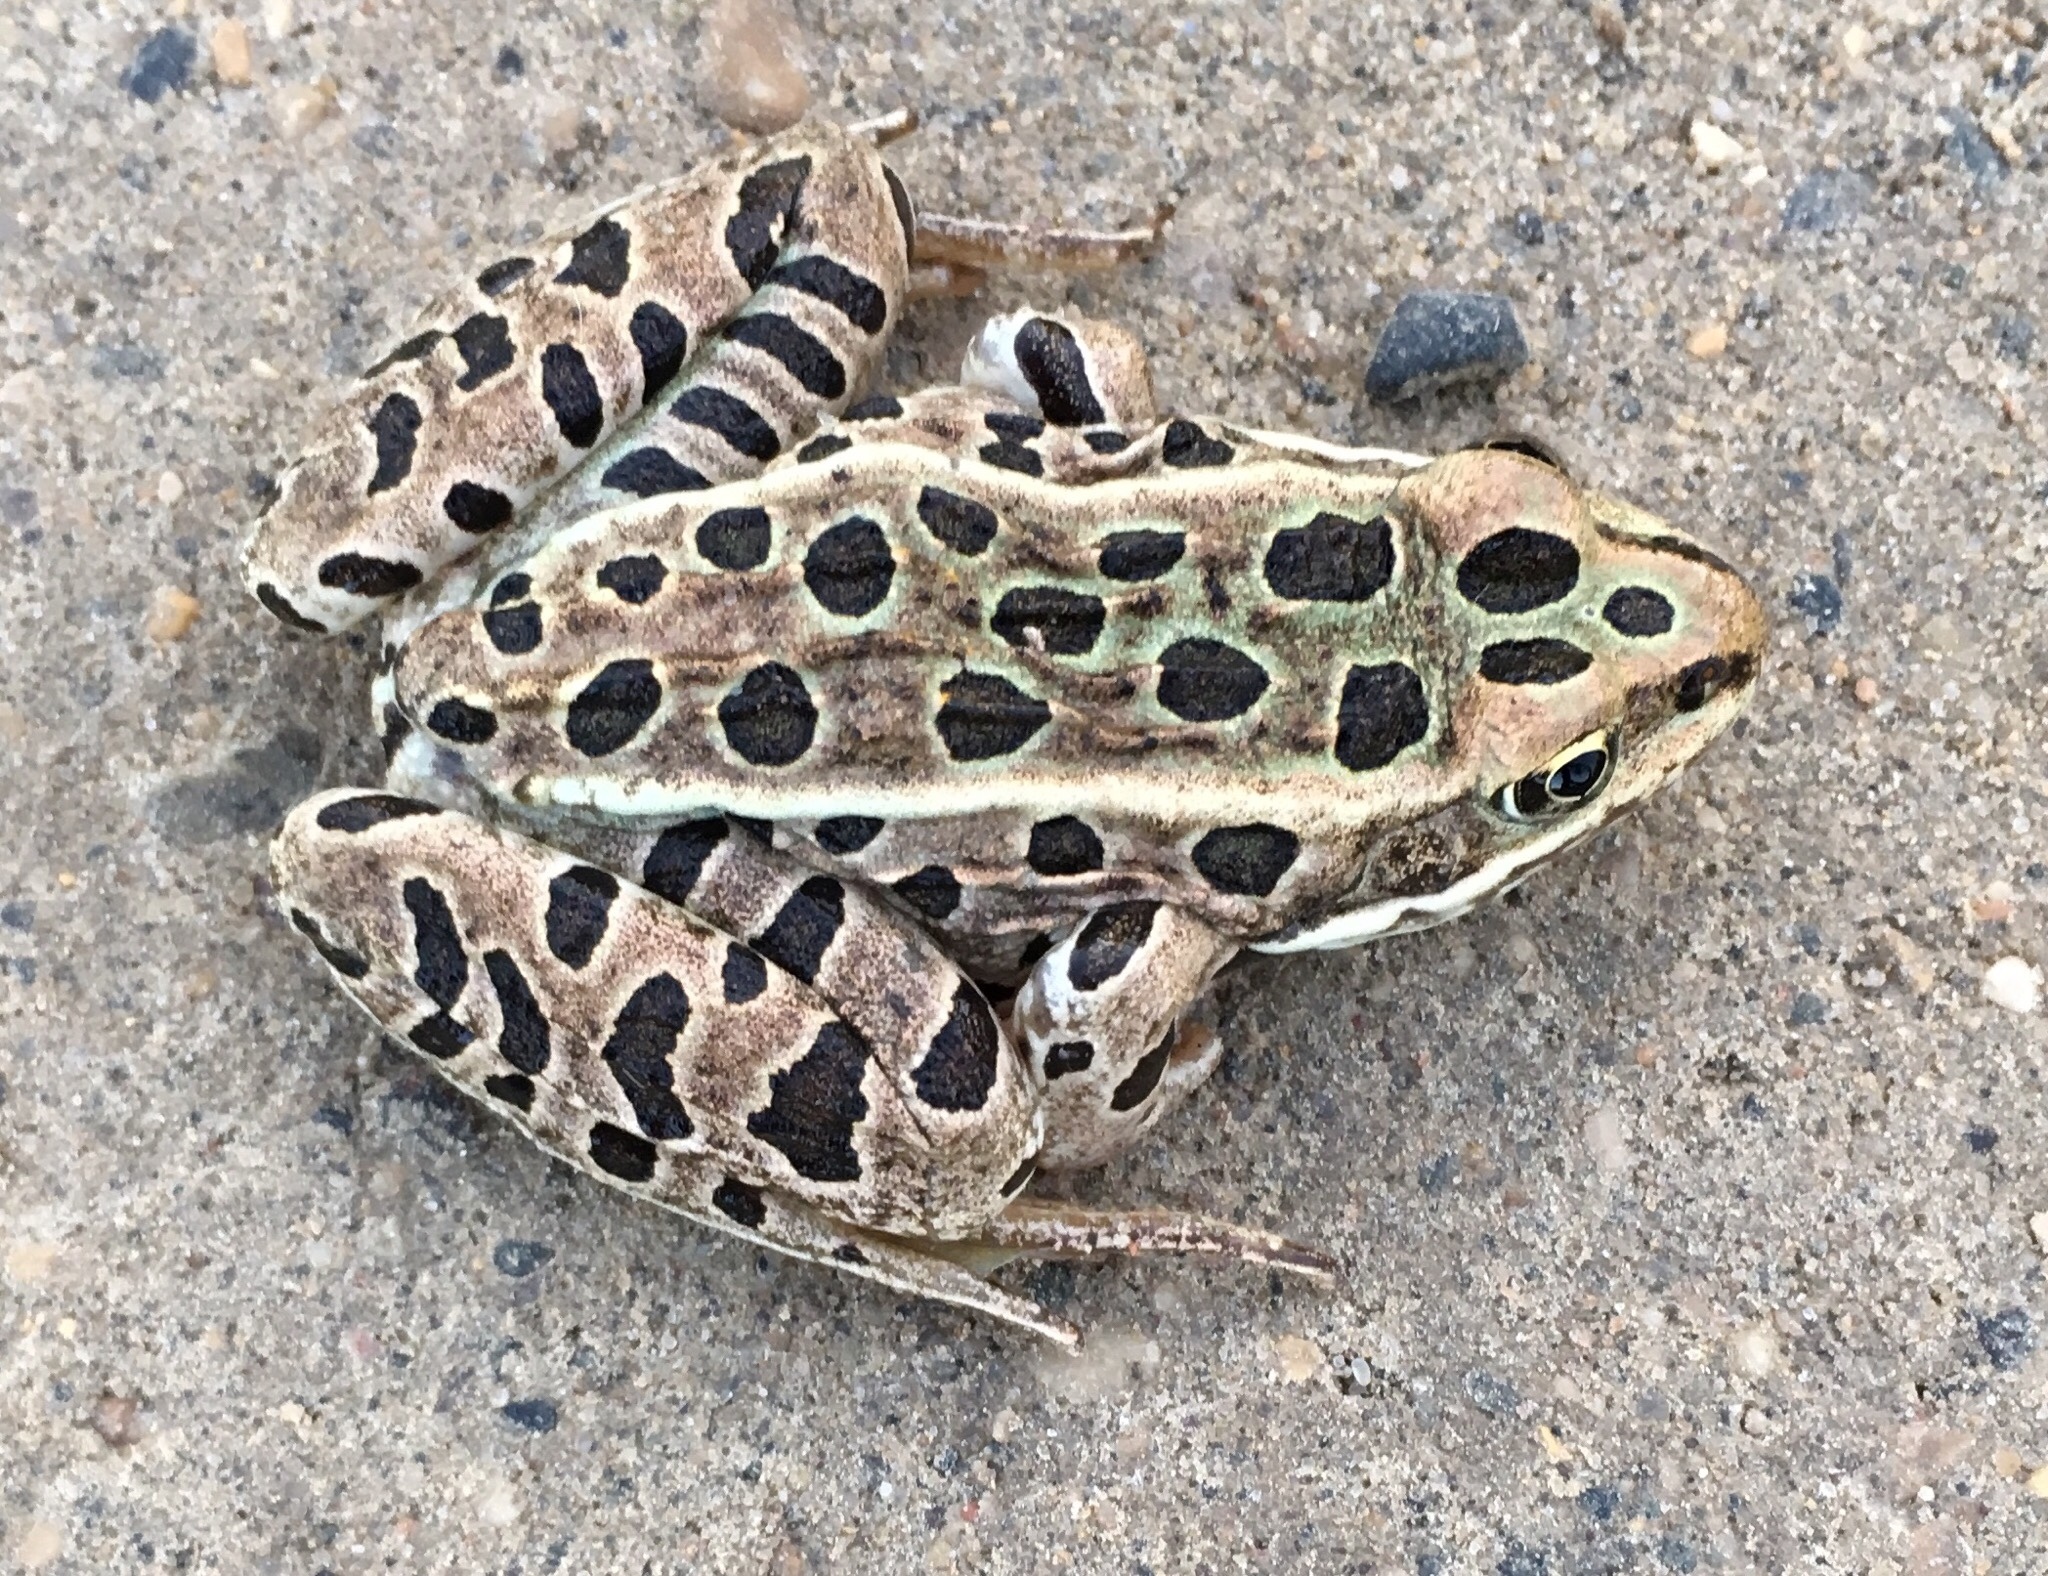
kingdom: Animalia
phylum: Chordata
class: Amphibia
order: Anura
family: Ranidae
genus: Lithobates
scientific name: Lithobates pipiens
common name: Northern leopard frog
